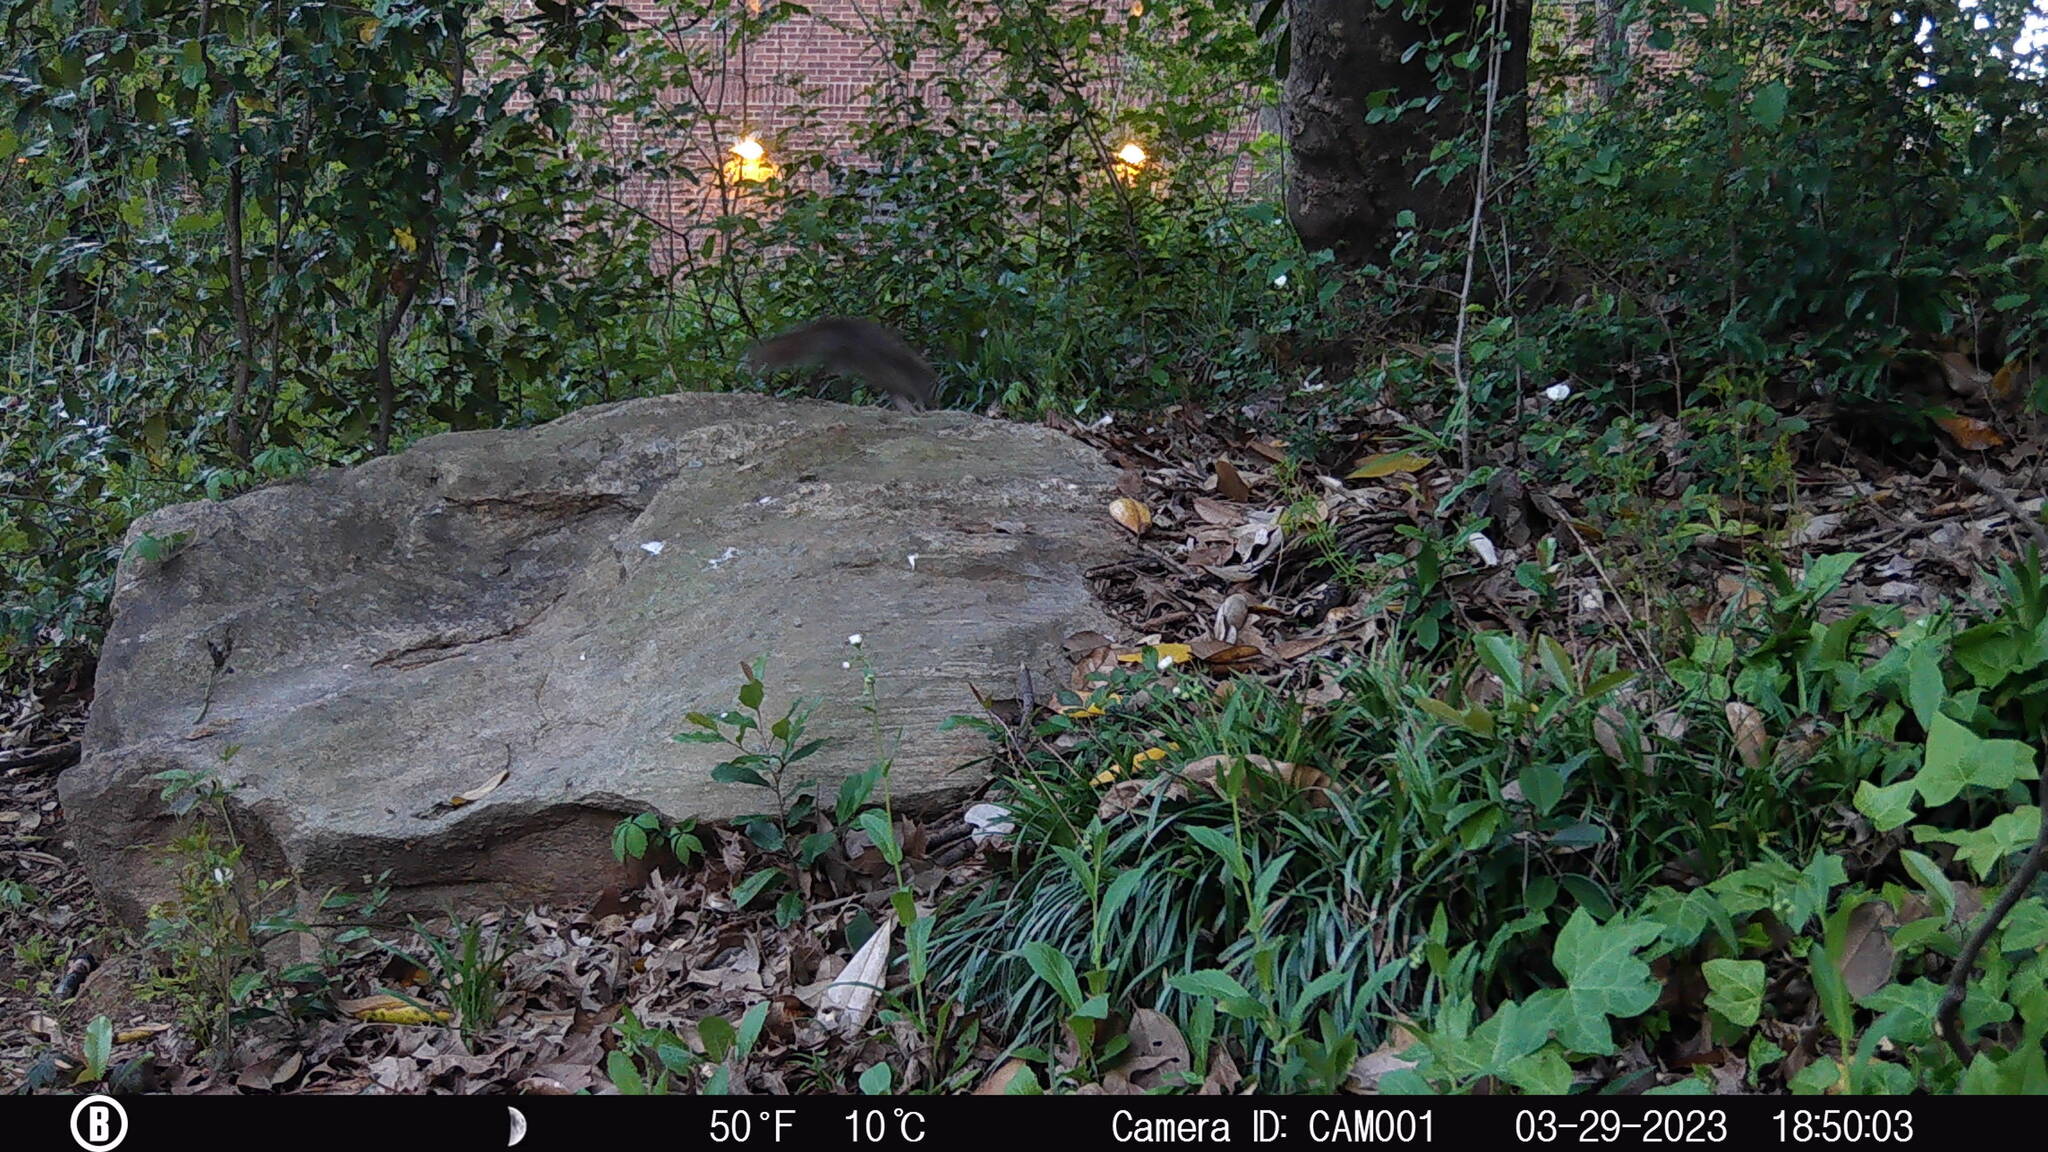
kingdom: Animalia
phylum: Chordata
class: Mammalia
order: Rodentia
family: Sciuridae
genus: Sciurus
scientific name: Sciurus carolinensis
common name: Eastern gray squirrel
